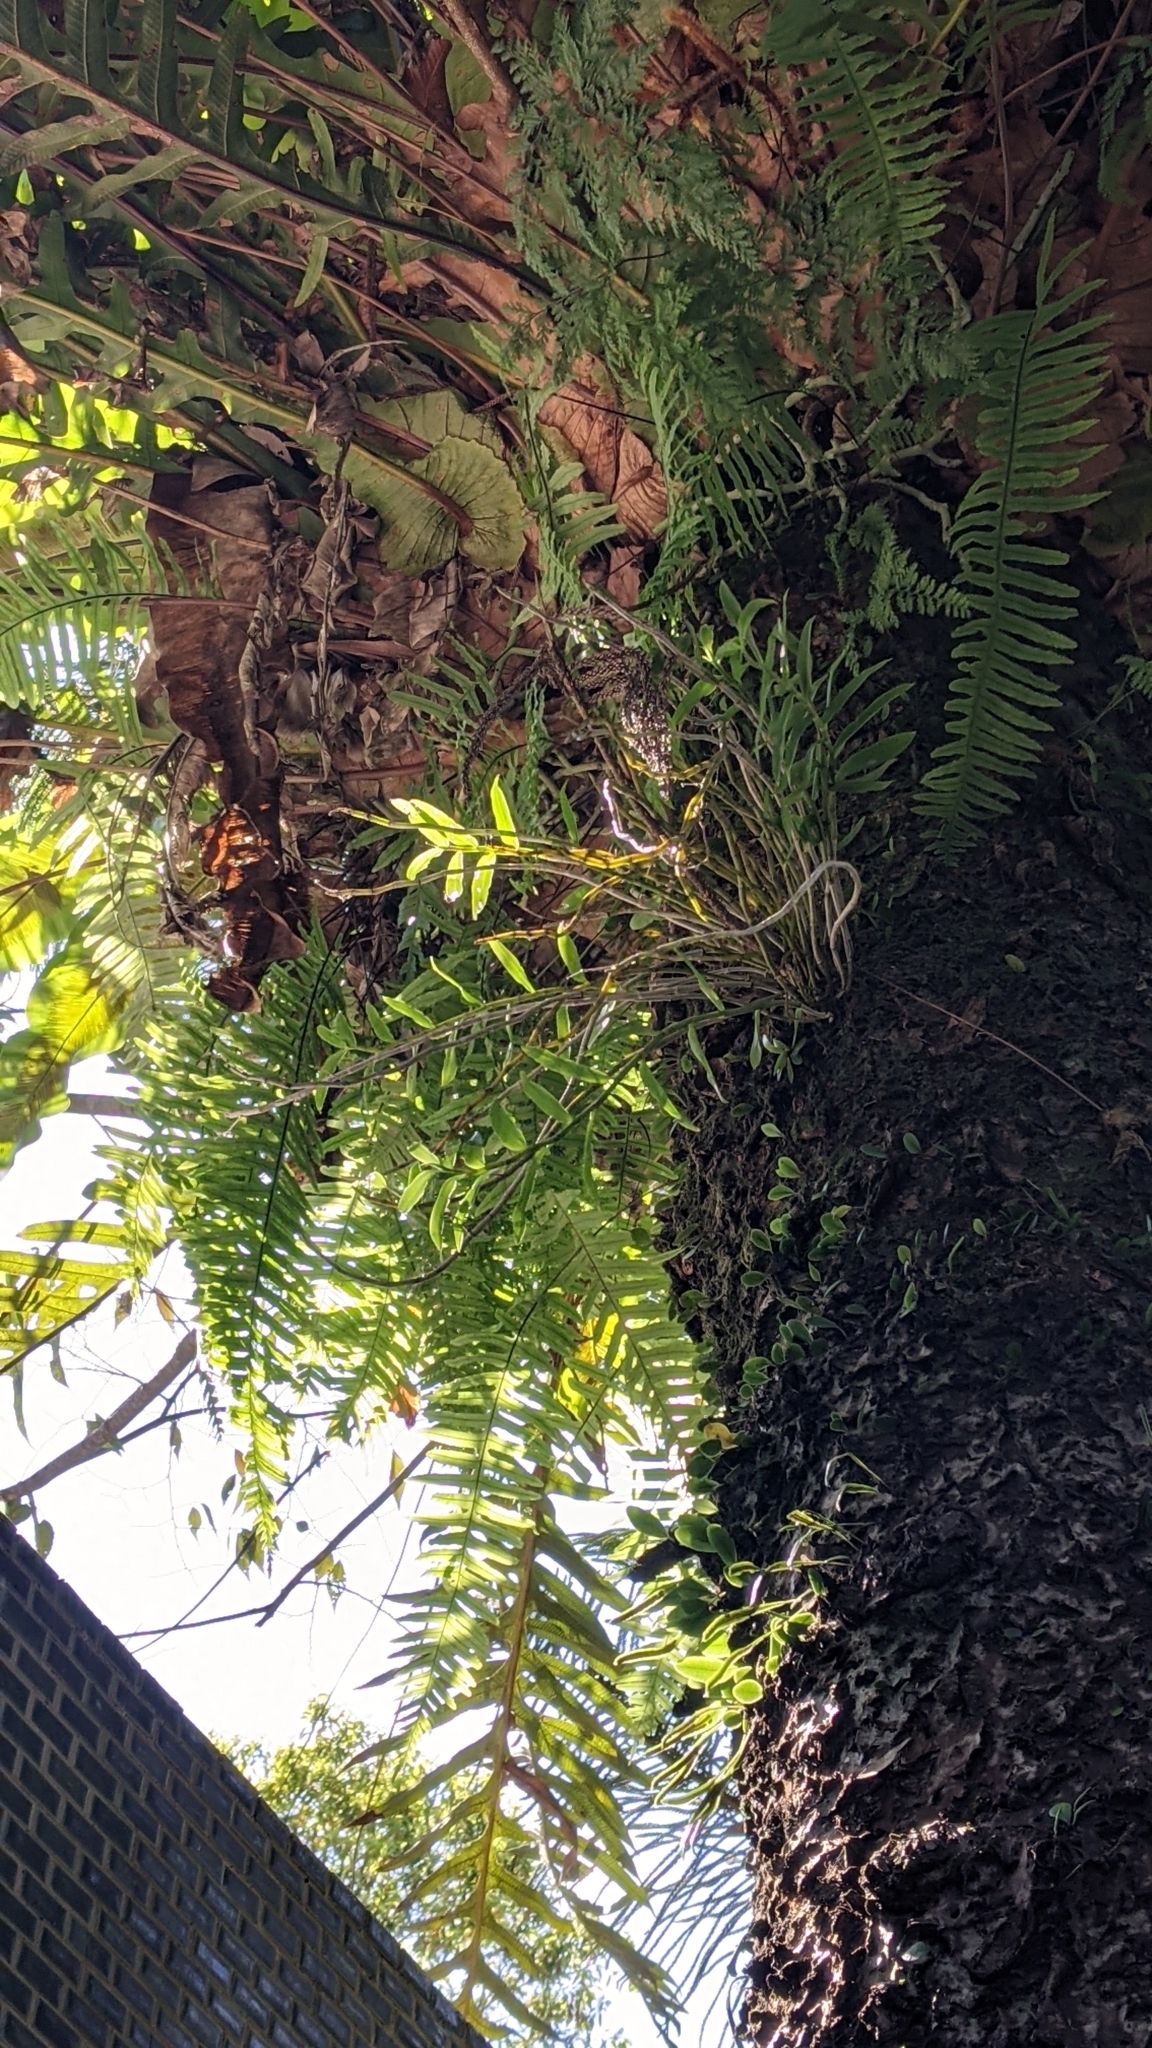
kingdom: Plantae
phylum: Tracheophyta
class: Liliopsida
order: Asparagales
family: Orchidaceae
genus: Dendrobium
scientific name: Dendrobium officinale
